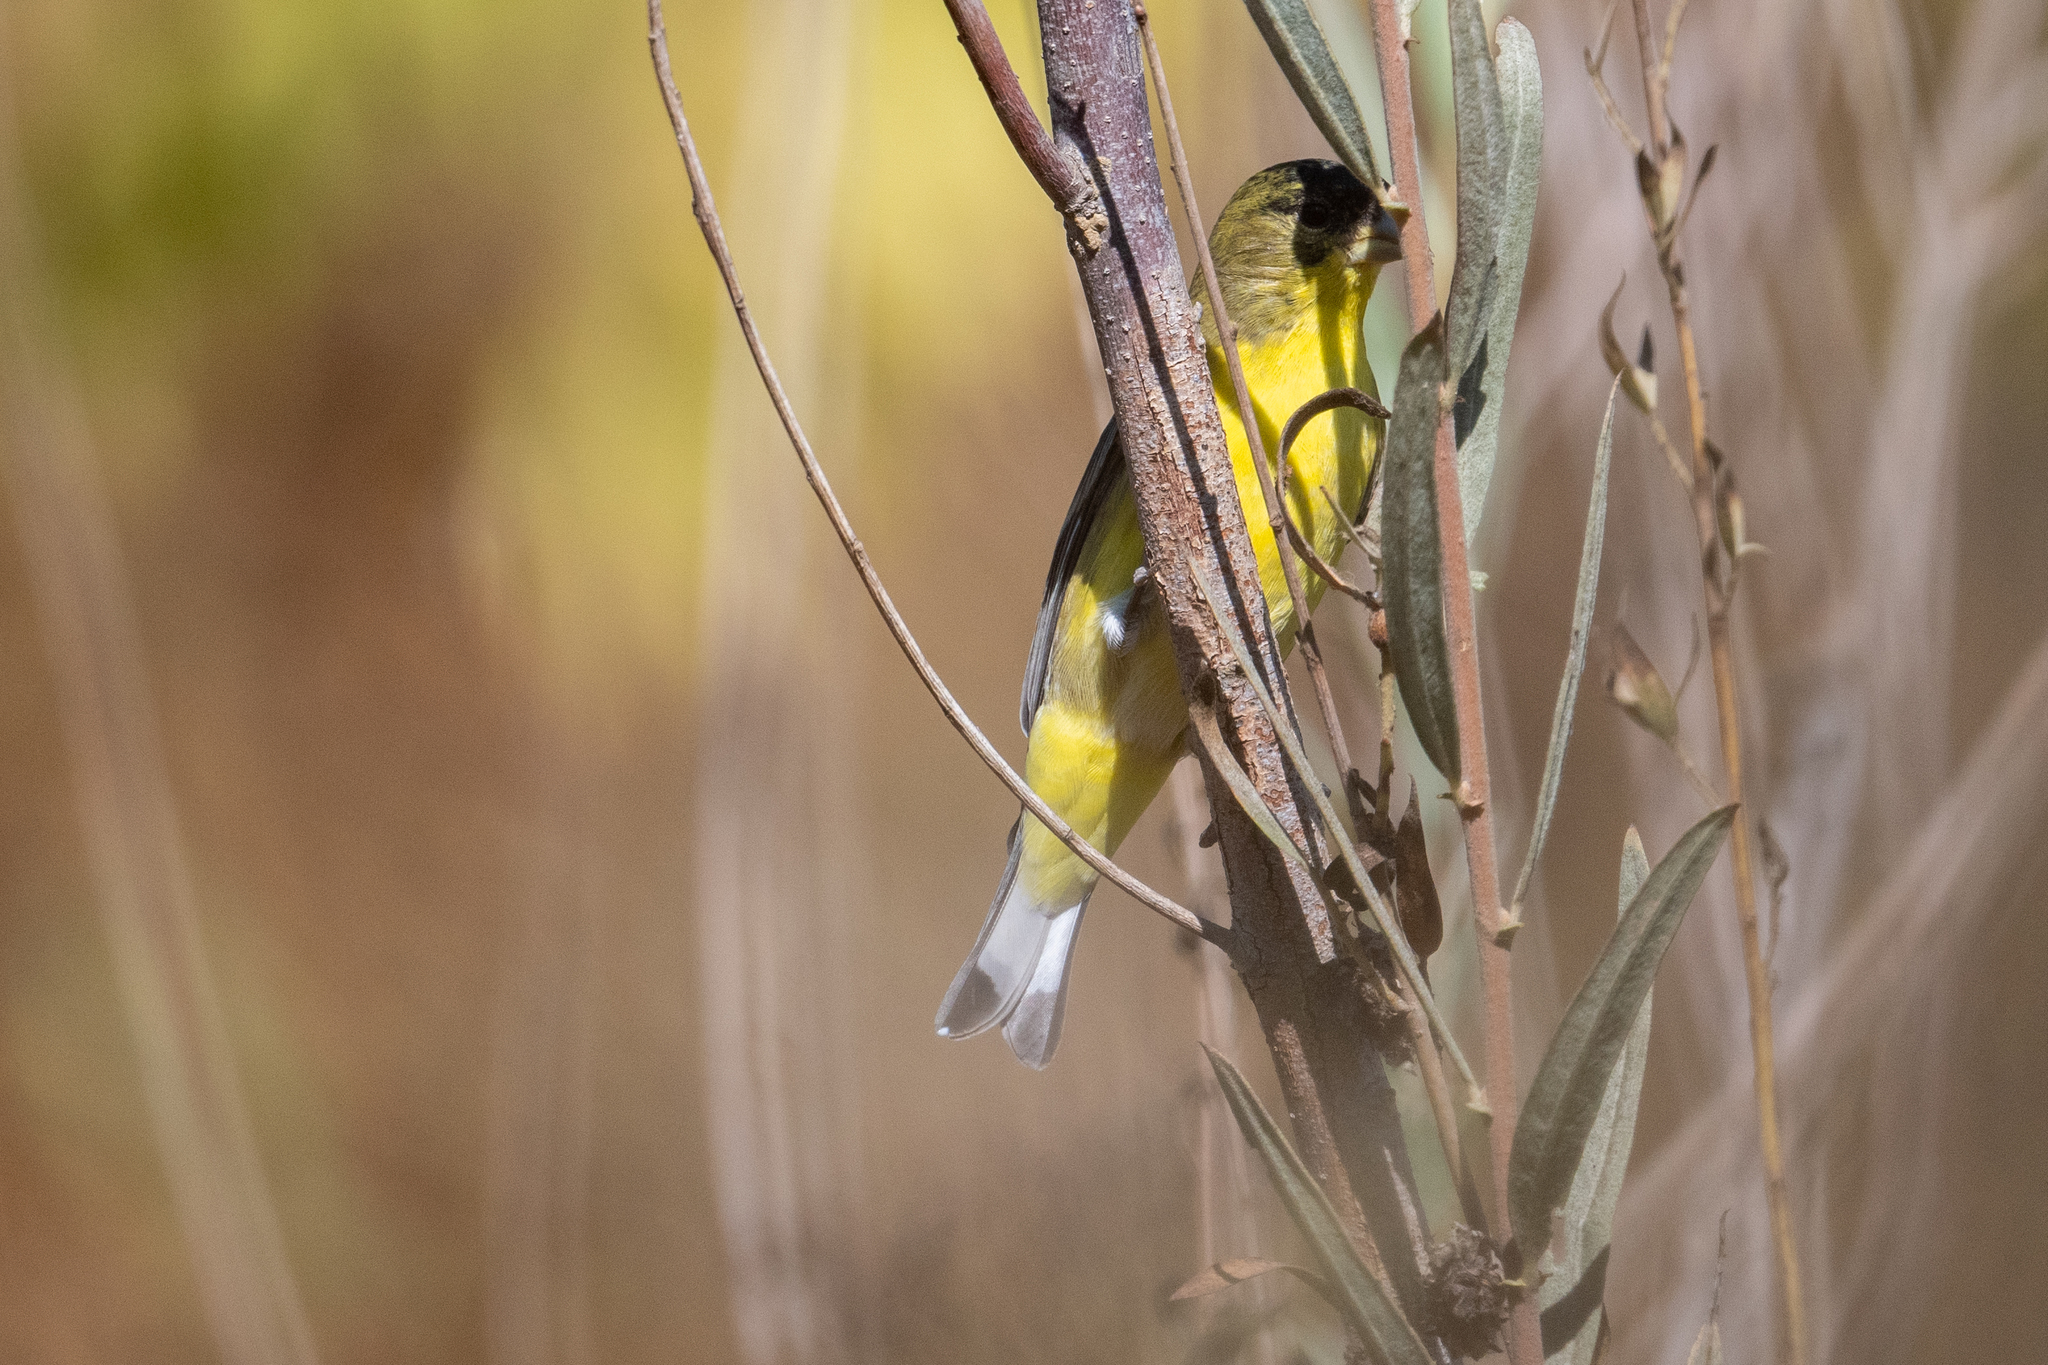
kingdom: Animalia
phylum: Chordata
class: Aves
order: Passeriformes
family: Fringillidae
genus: Spinus
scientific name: Spinus psaltria
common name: Lesser goldfinch
